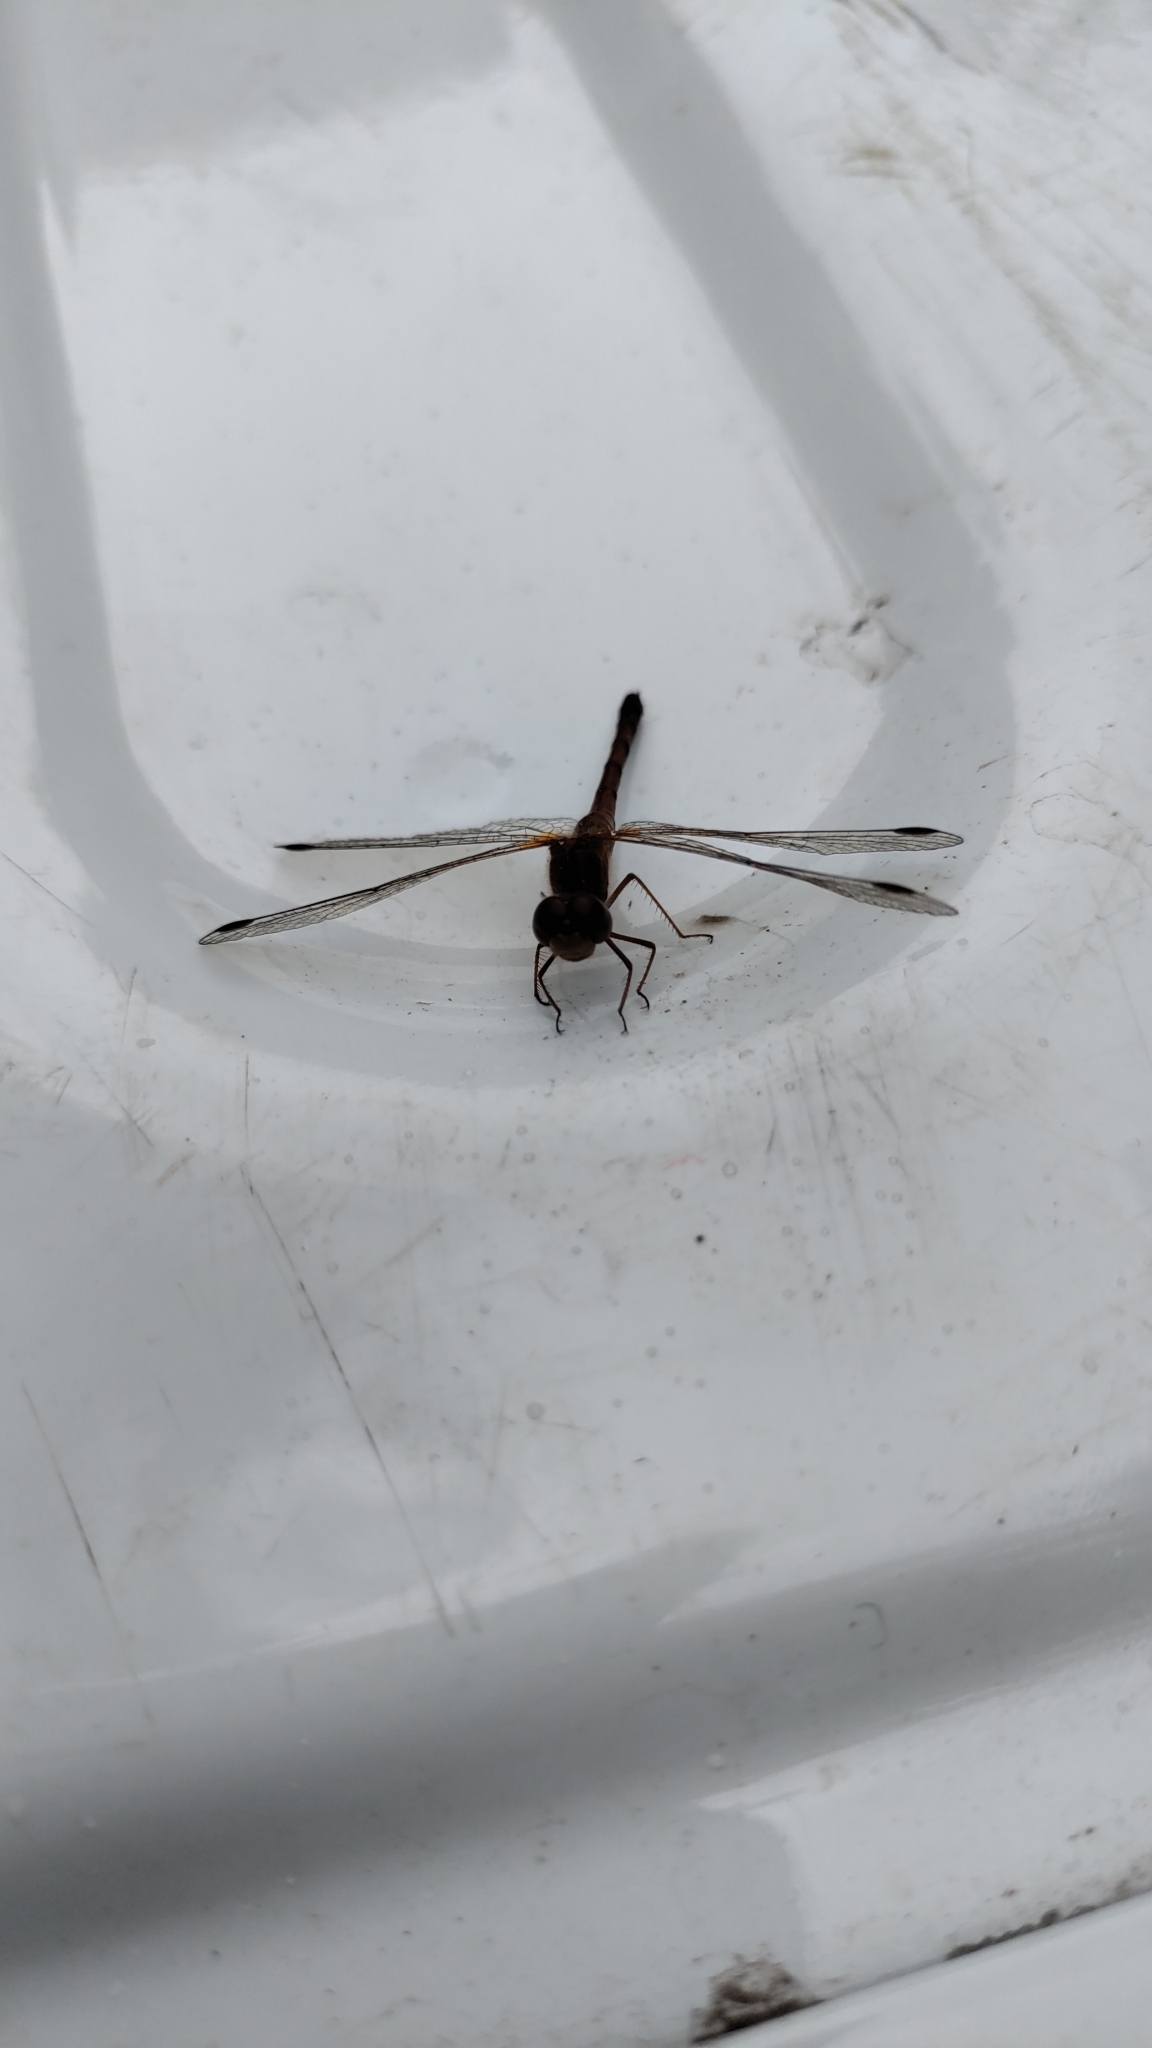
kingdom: Animalia
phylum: Arthropoda
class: Insecta
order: Odonata
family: Libellulidae
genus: Sympetrum
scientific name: Sympetrum vicinum
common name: Autumn meadowhawk
